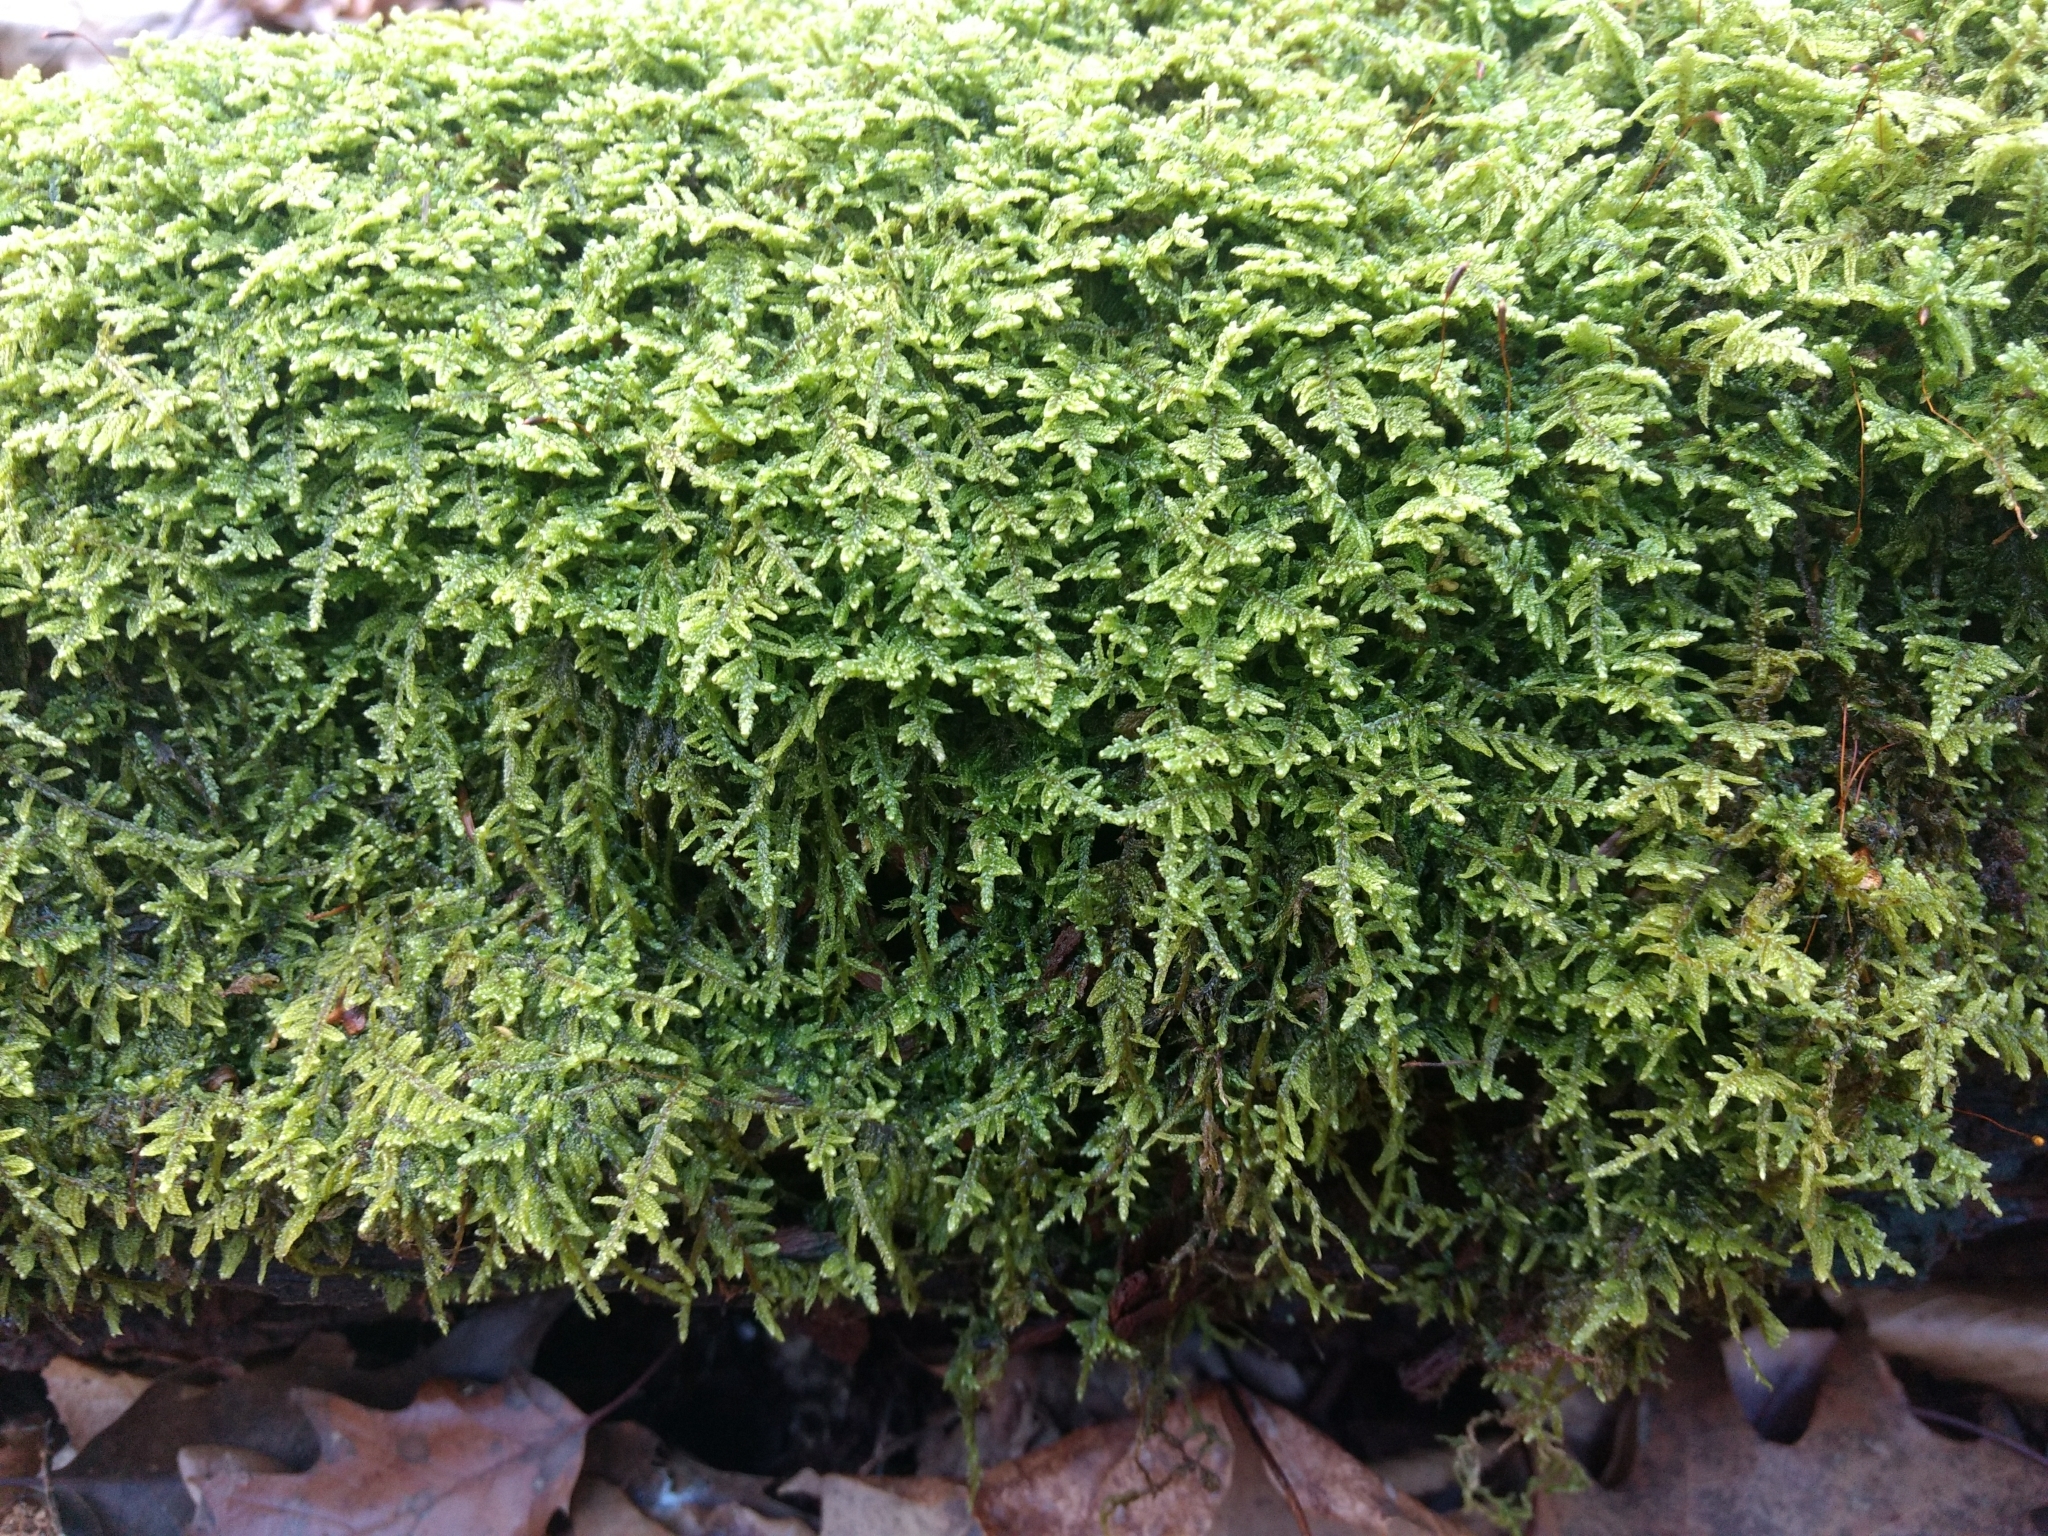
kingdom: Plantae
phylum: Bryophyta
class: Bryopsida
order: Hypnales
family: Callicladiaceae
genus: Callicladium
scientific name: Callicladium imponens
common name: Brocade moss
